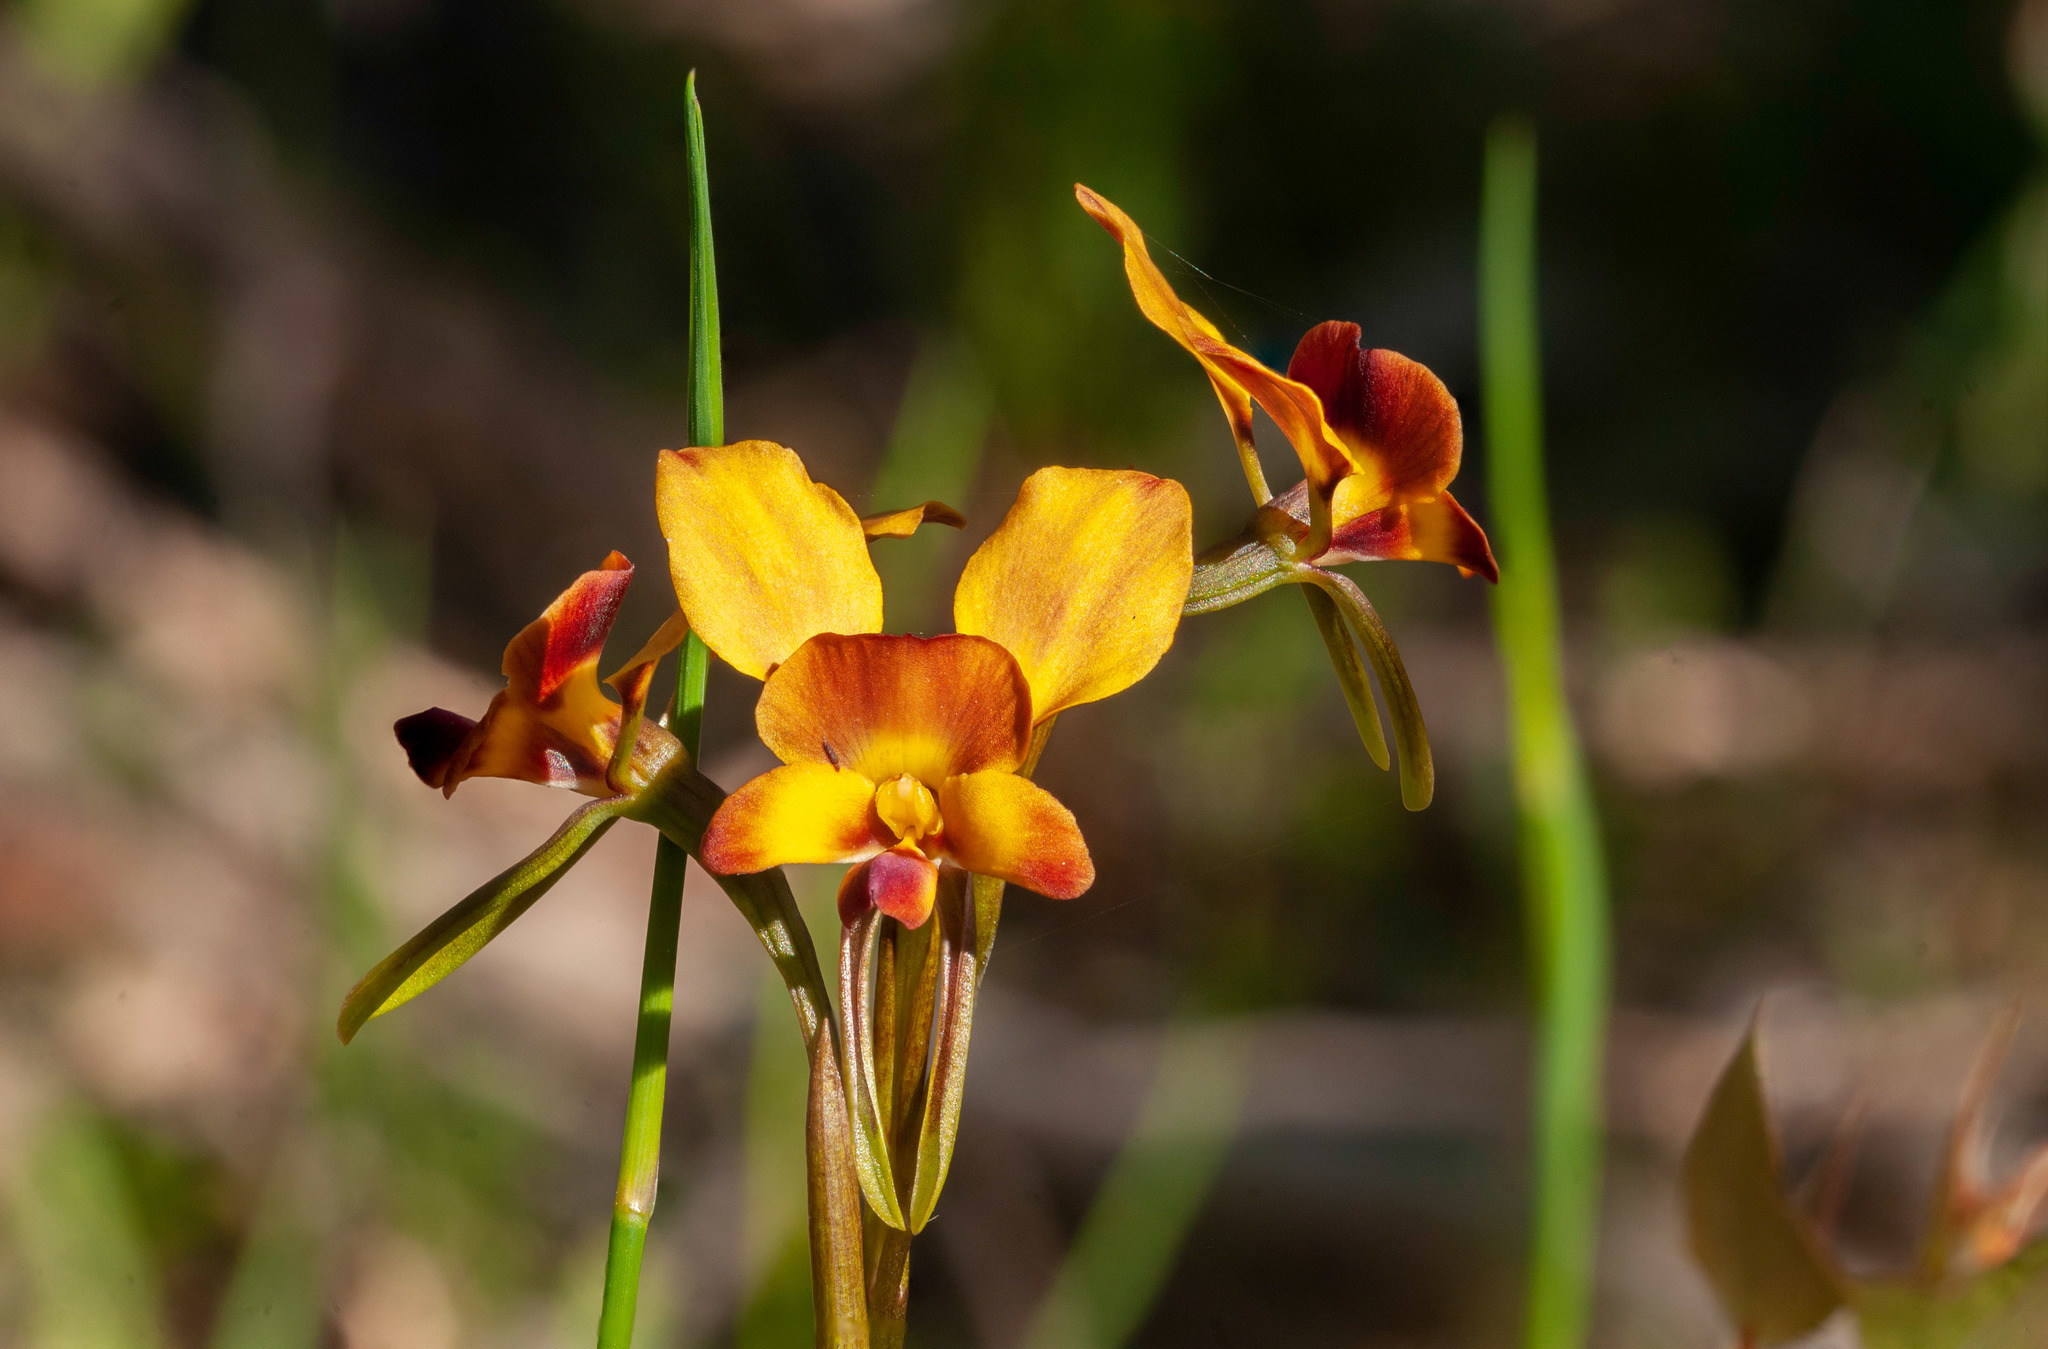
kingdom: Plantae
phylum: Tracheophyta
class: Liliopsida
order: Asparagales
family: Orchidaceae
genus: Diuris
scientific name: Diuris orientis
